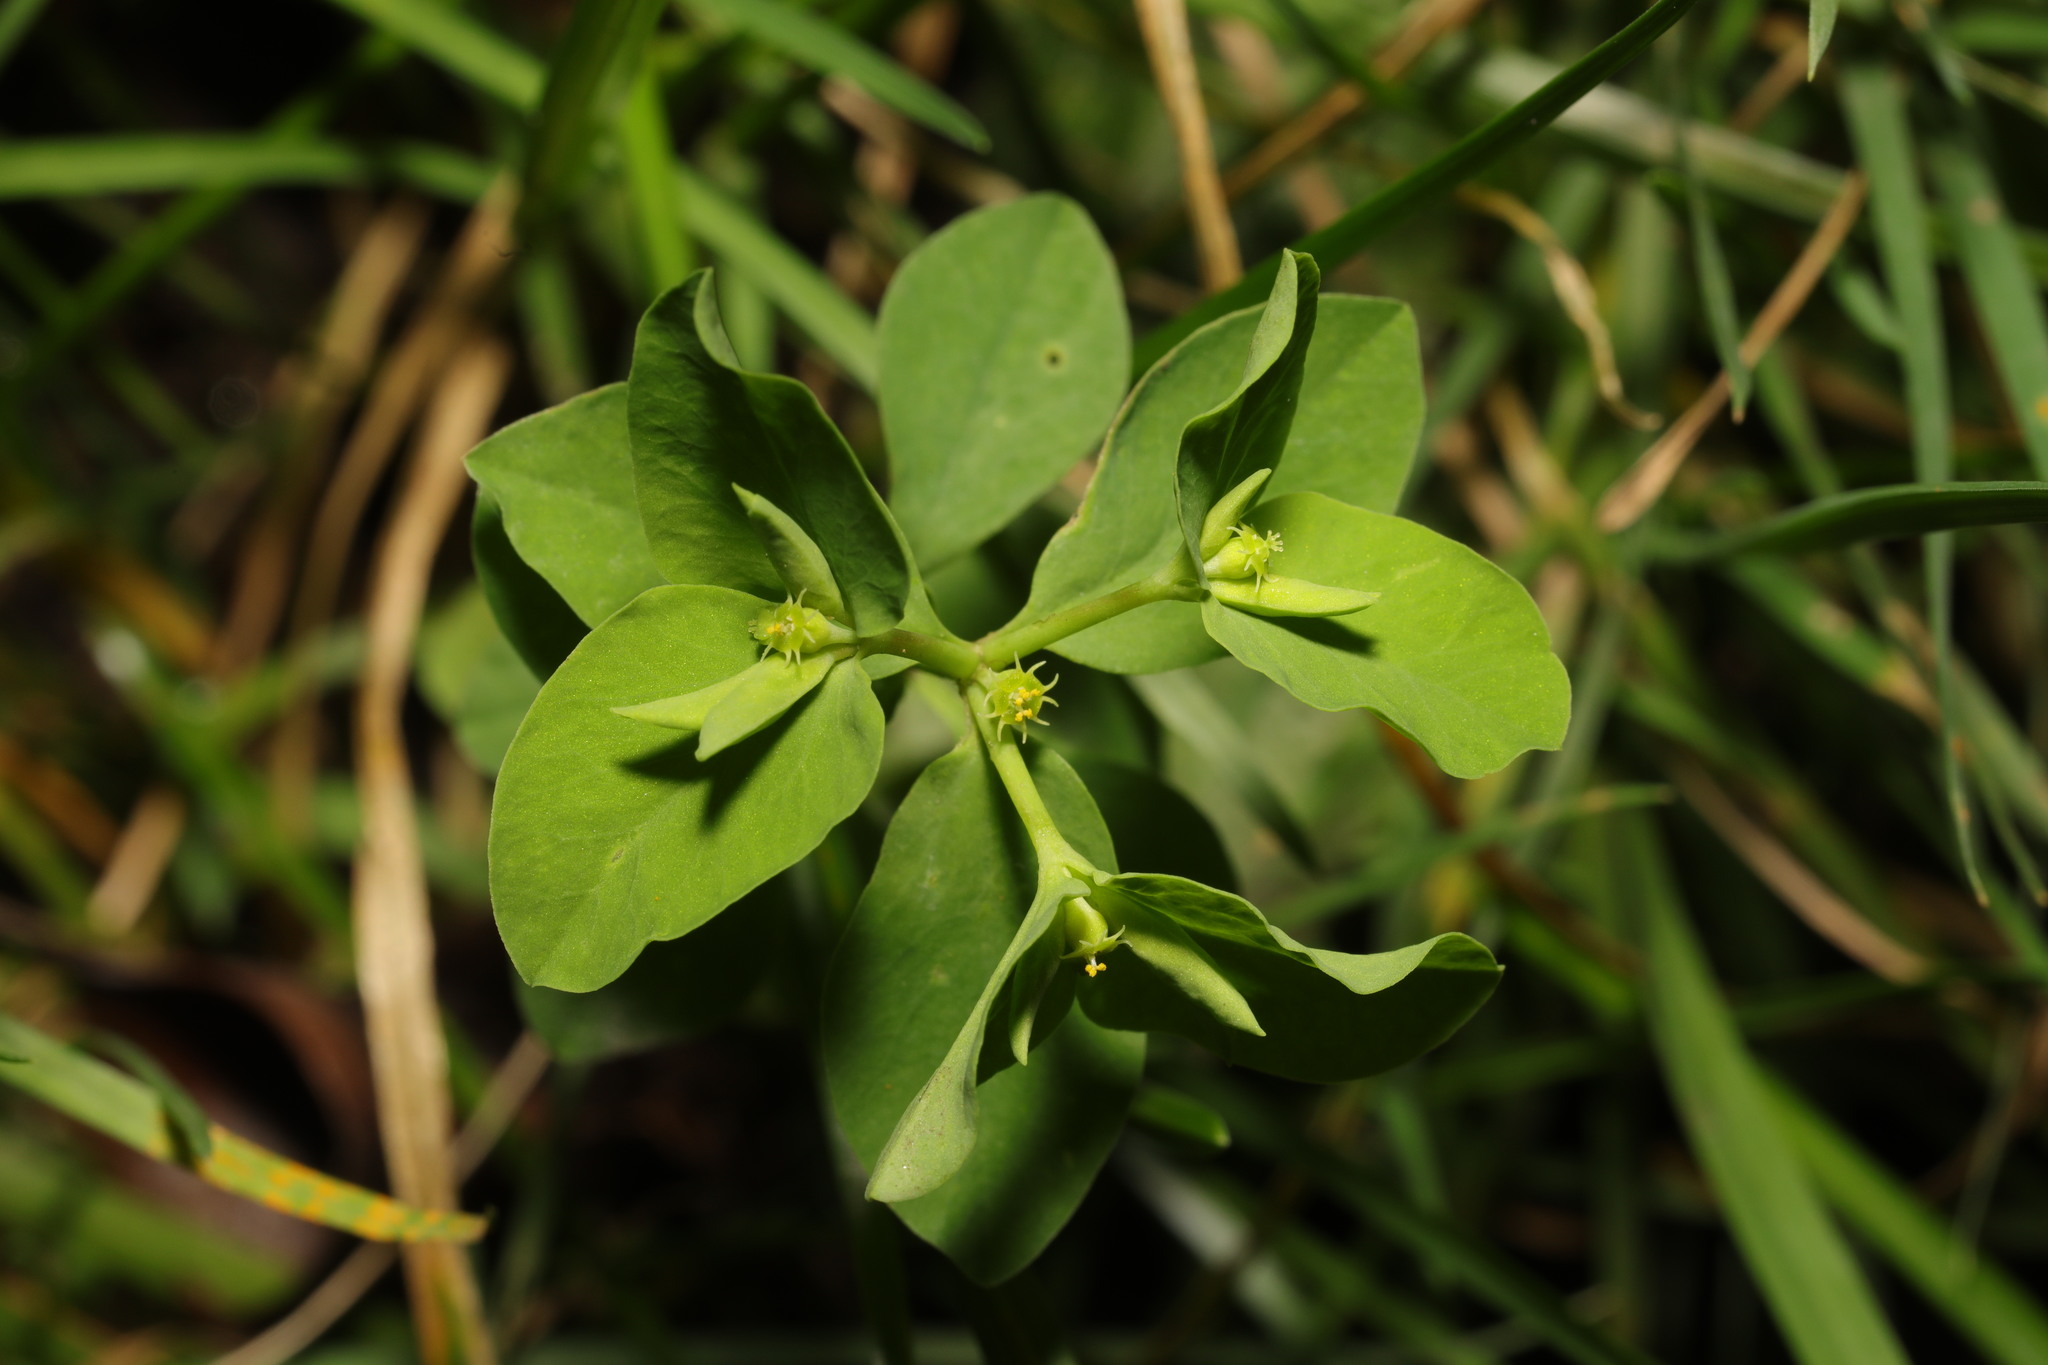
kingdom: Plantae
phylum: Tracheophyta
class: Magnoliopsida
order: Malpighiales
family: Euphorbiaceae
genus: Euphorbia
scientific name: Euphorbia peplus
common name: Petty spurge
